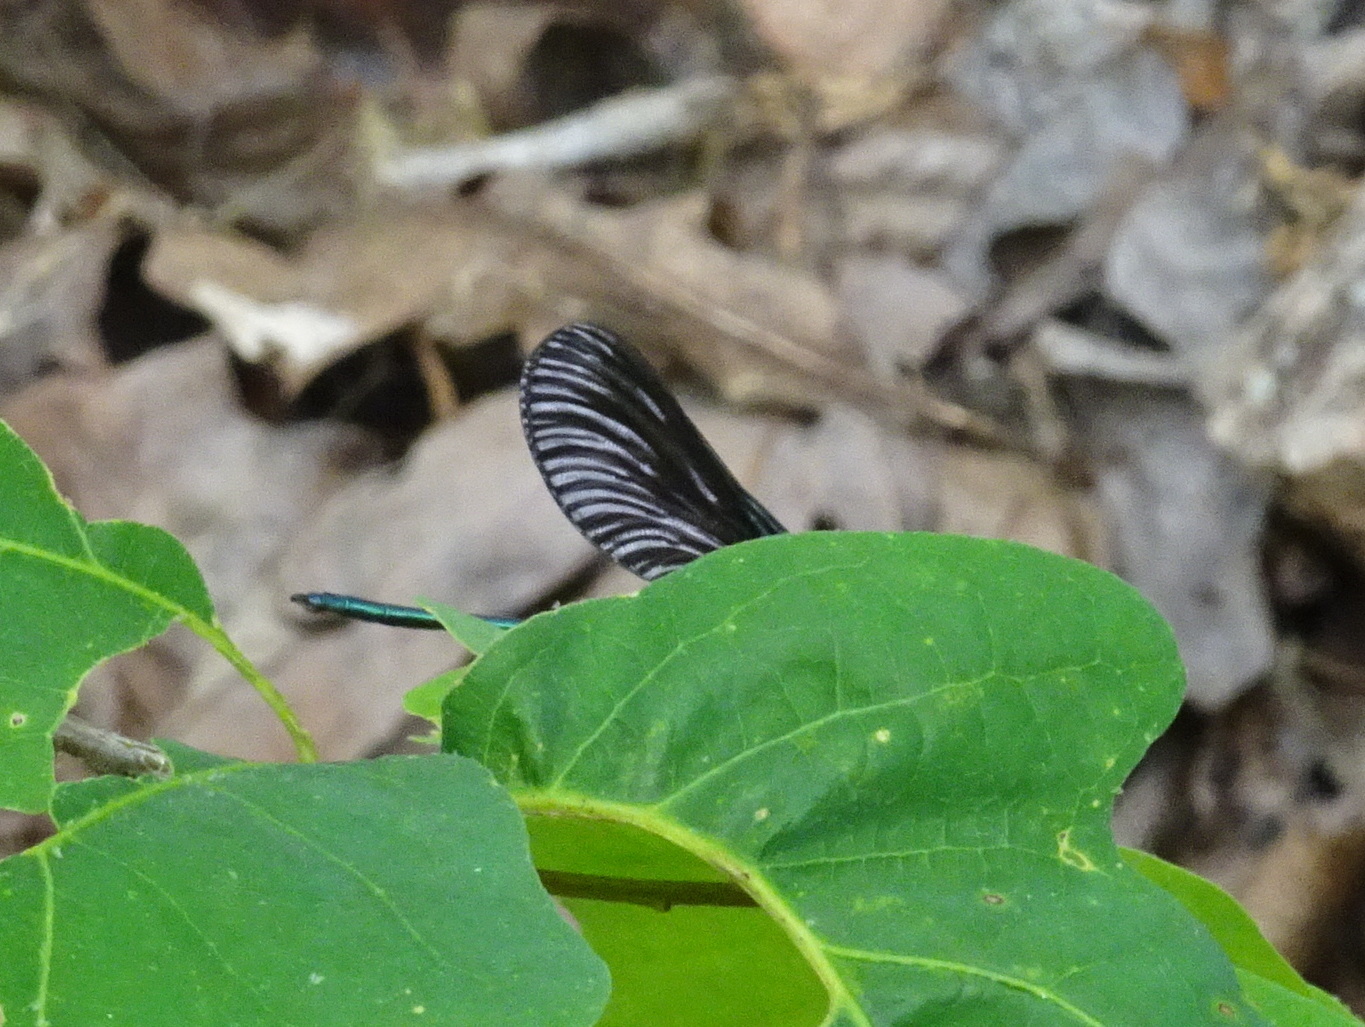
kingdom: Animalia
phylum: Arthropoda
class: Insecta
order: Odonata
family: Calopterygidae
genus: Calopteryx
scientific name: Calopteryx maculata
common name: Ebony jewelwing
